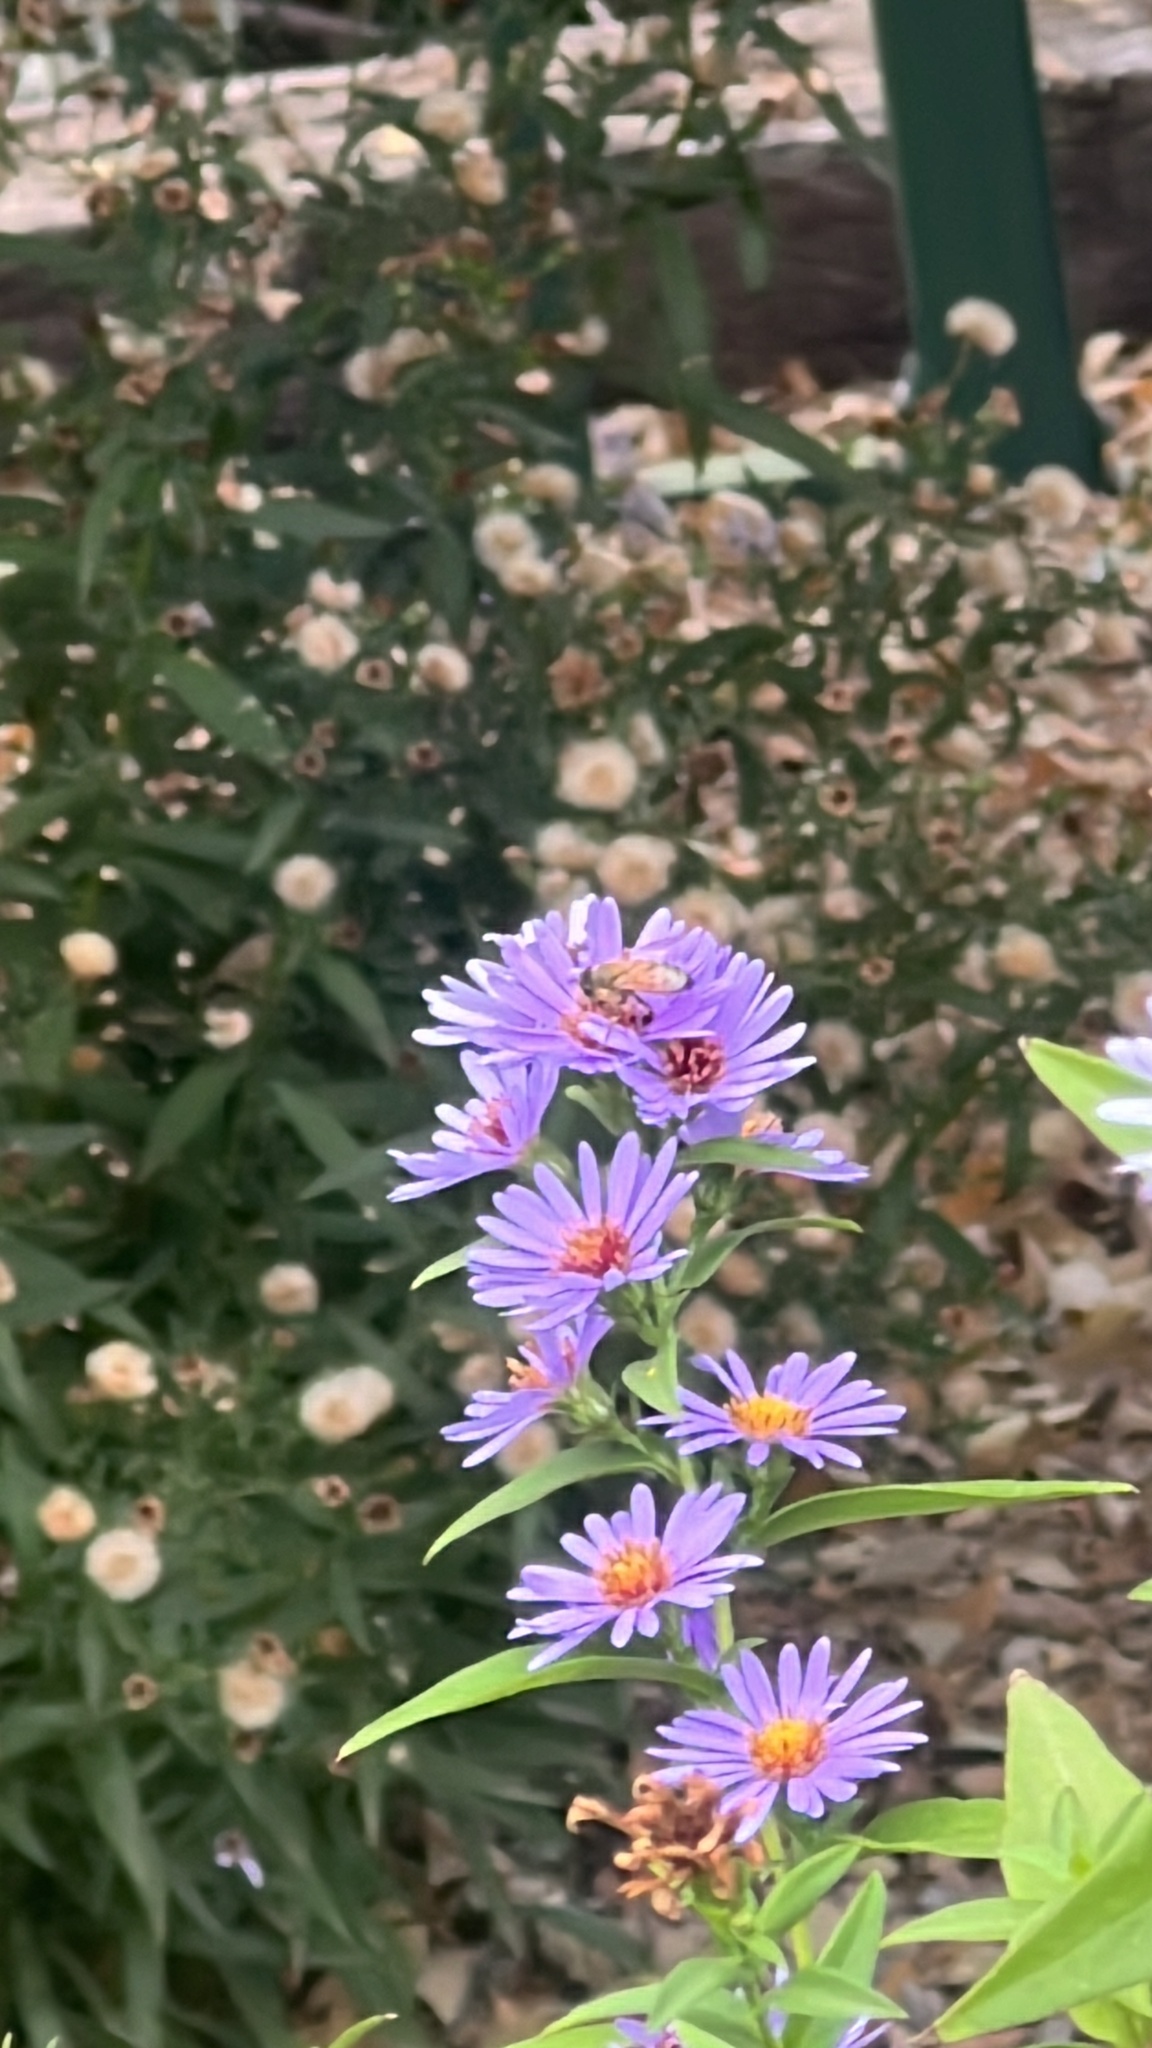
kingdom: Animalia
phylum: Arthropoda
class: Insecta
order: Hymenoptera
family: Apidae
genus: Apis
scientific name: Apis mellifera
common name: Honey bee
